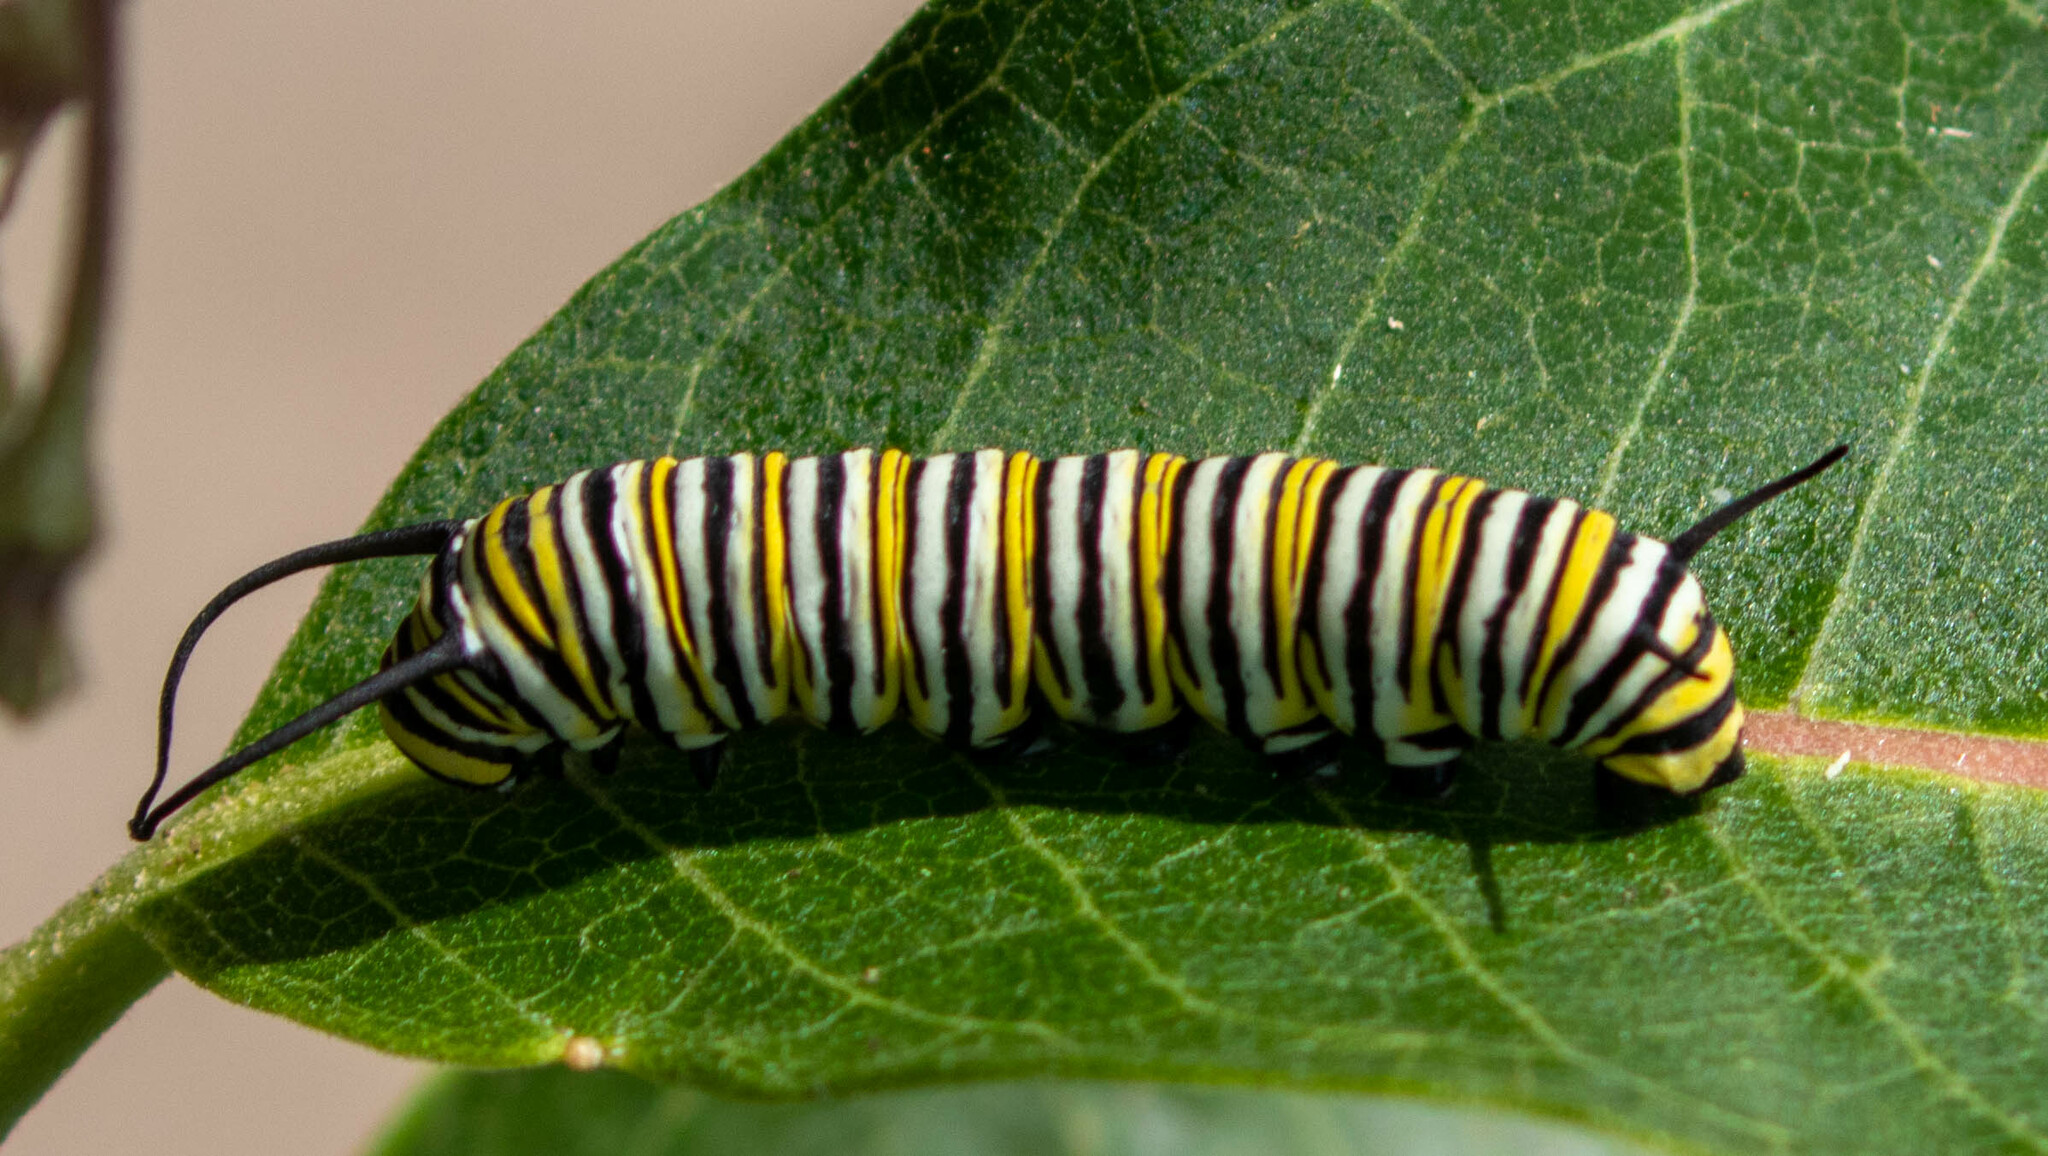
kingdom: Animalia
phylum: Arthropoda
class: Insecta
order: Lepidoptera
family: Nymphalidae
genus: Danaus
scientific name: Danaus plexippus
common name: Monarch
